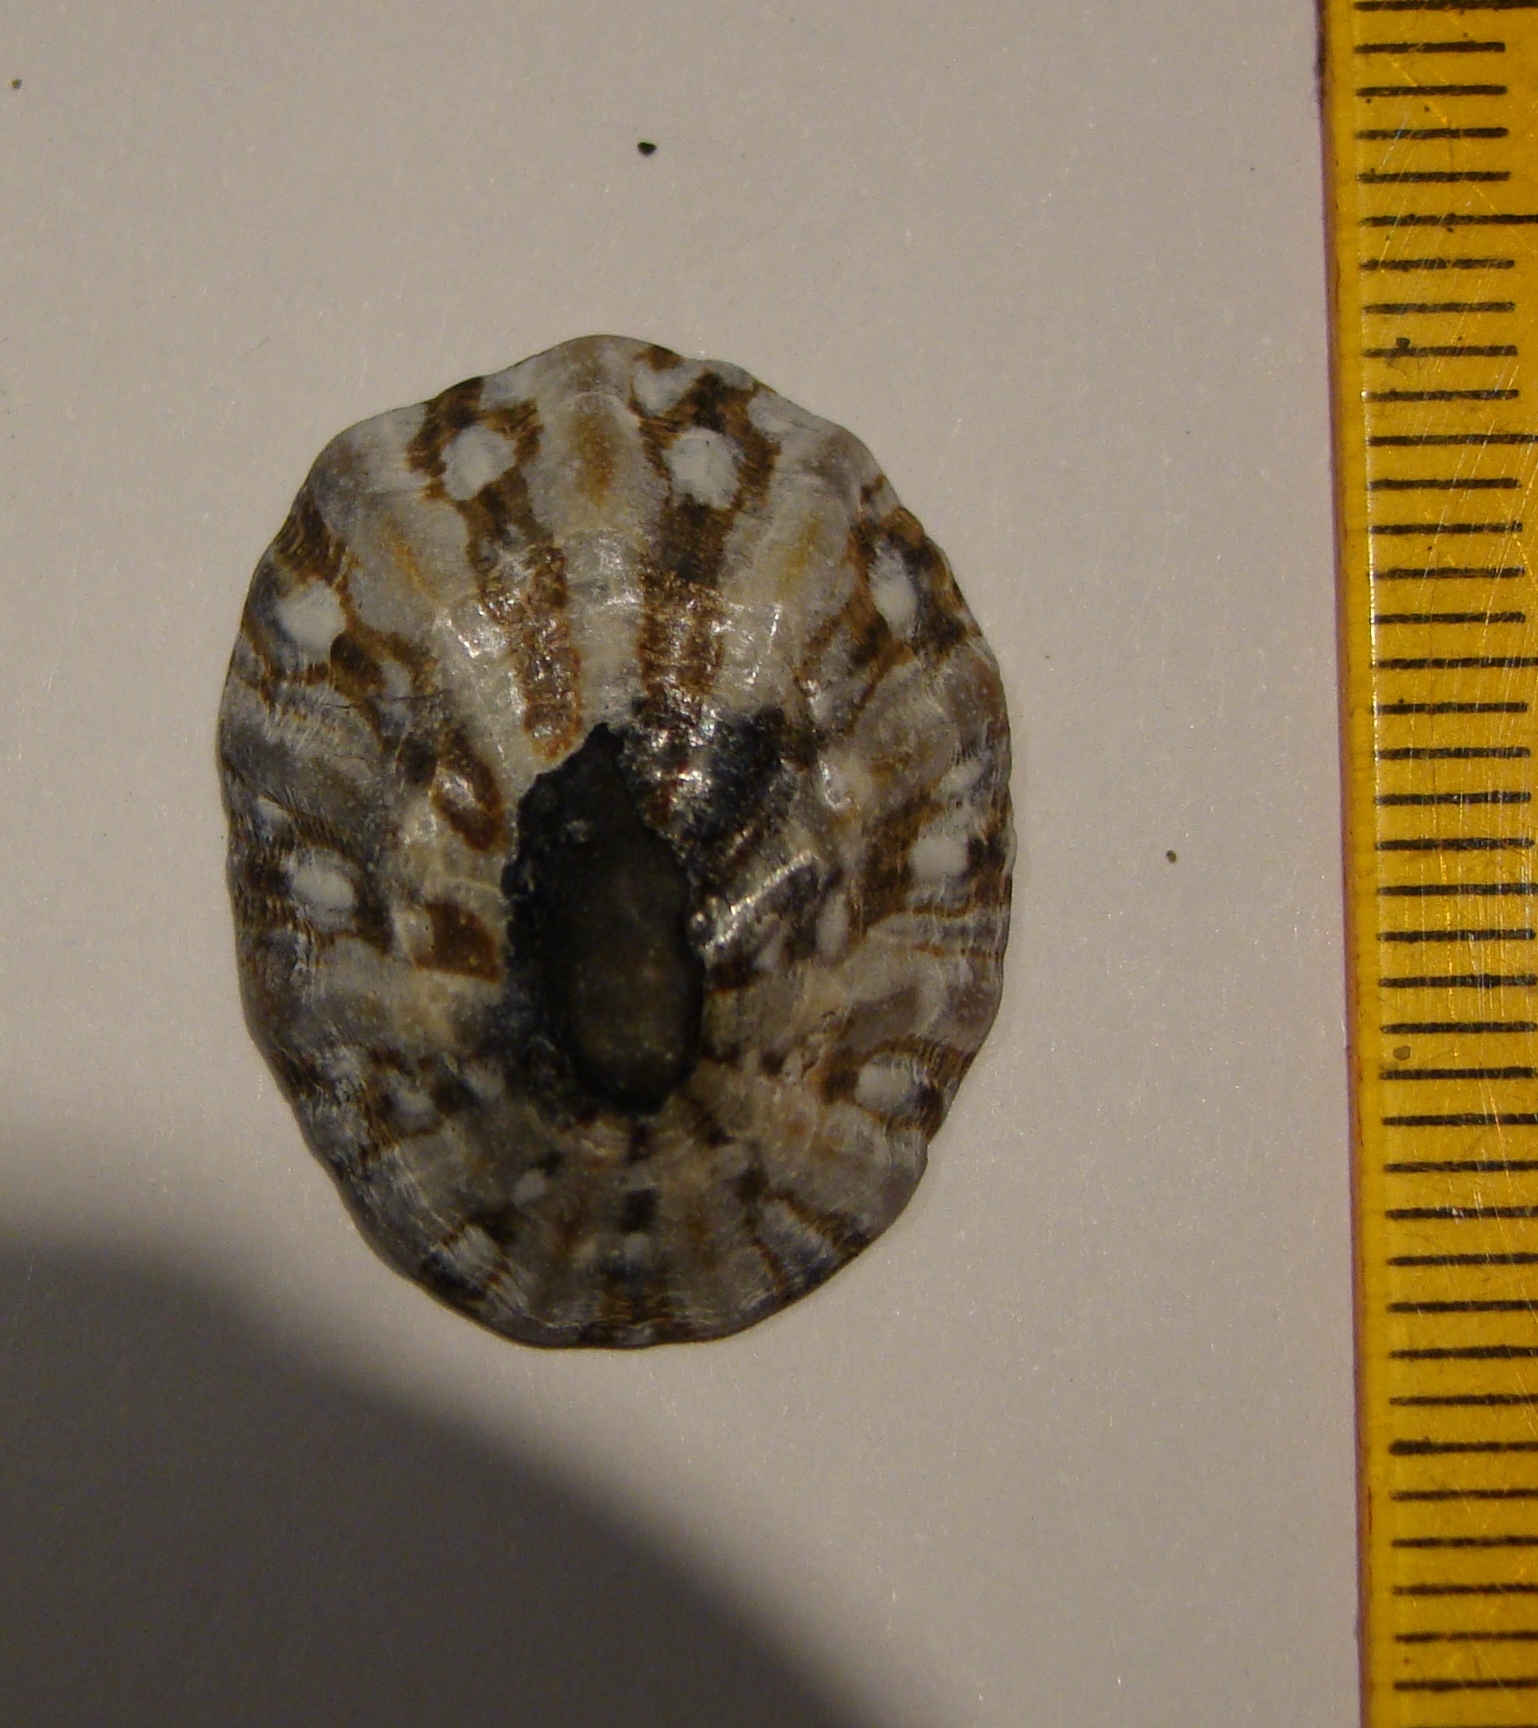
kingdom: Animalia
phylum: Mollusca
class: Gastropoda
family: Nacellidae
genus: Cellana
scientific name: Cellana ornata
